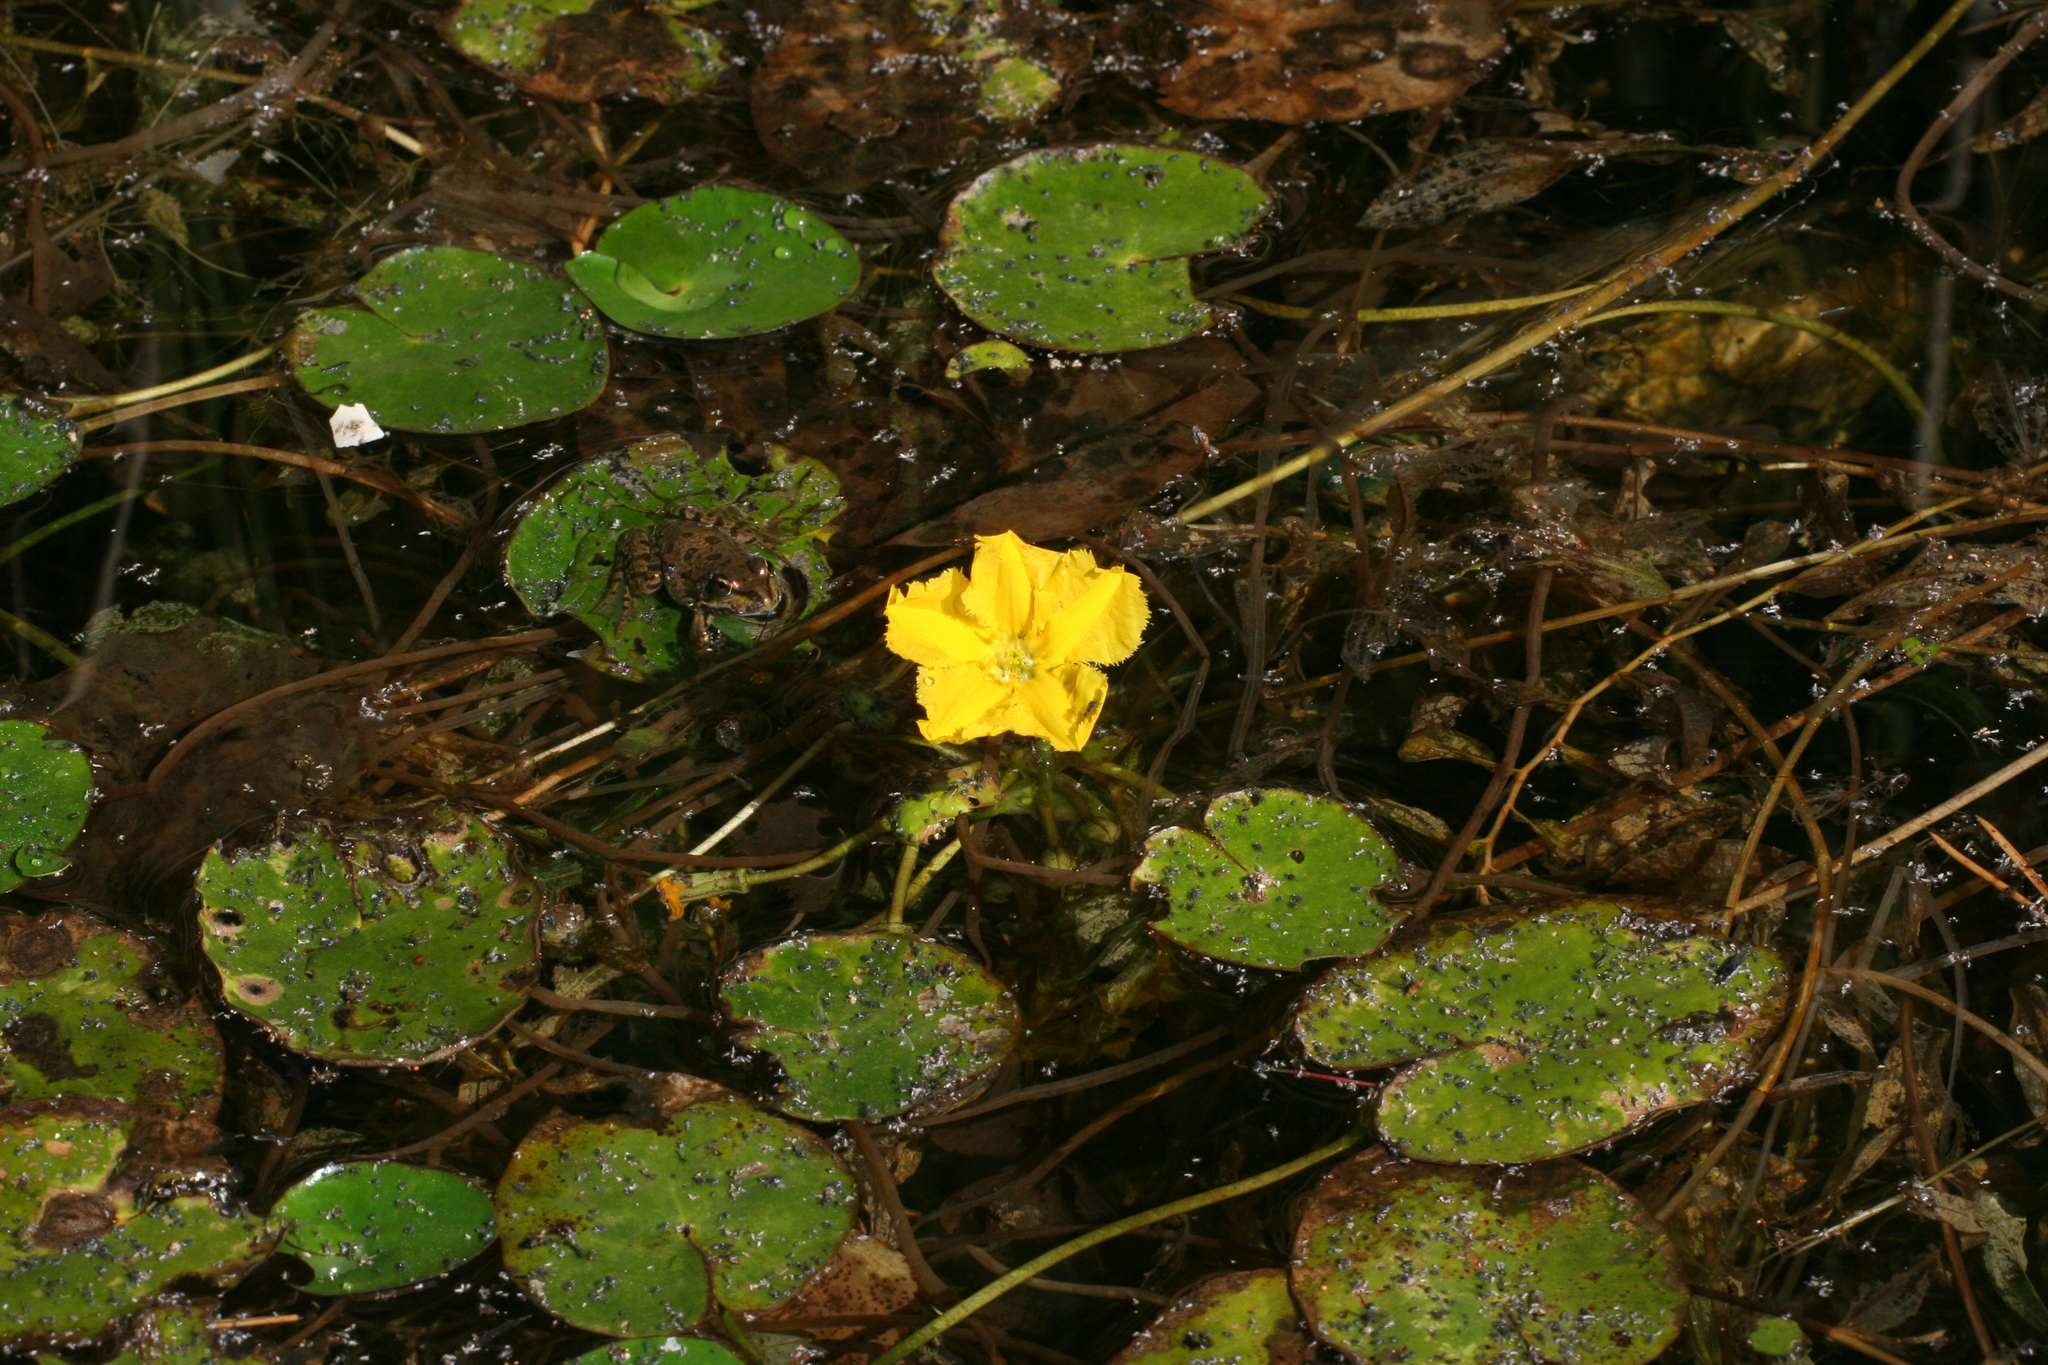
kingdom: Plantae
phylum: Tracheophyta
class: Magnoliopsida
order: Asterales
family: Menyanthaceae
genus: Nymphoides
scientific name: Nymphoides peltata
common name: Fringed water-lily
